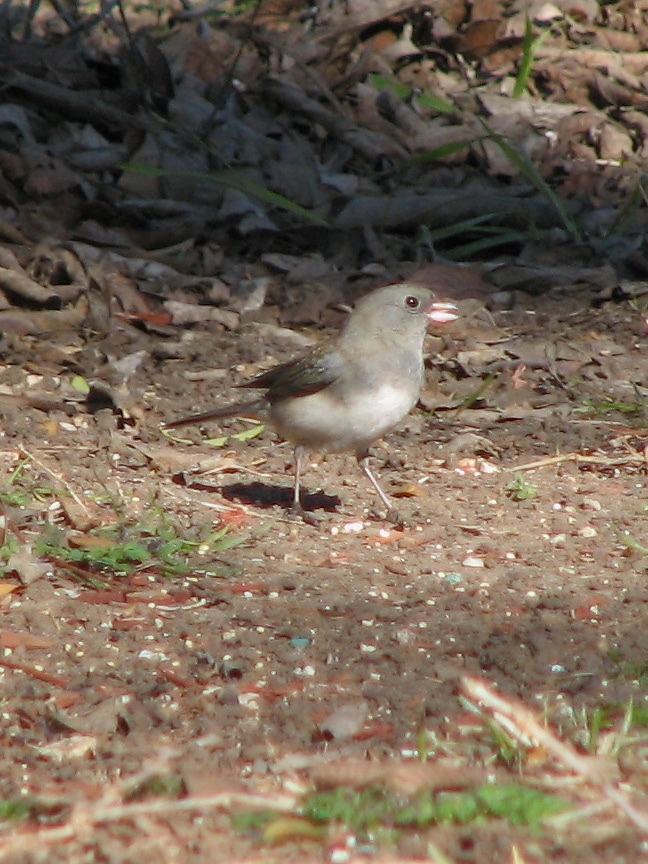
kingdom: Animalia
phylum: Chordata
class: Aves
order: Passeriformes
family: Passerellidae
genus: Junco
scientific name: Junco hyemalis
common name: Dark-eyed junco
